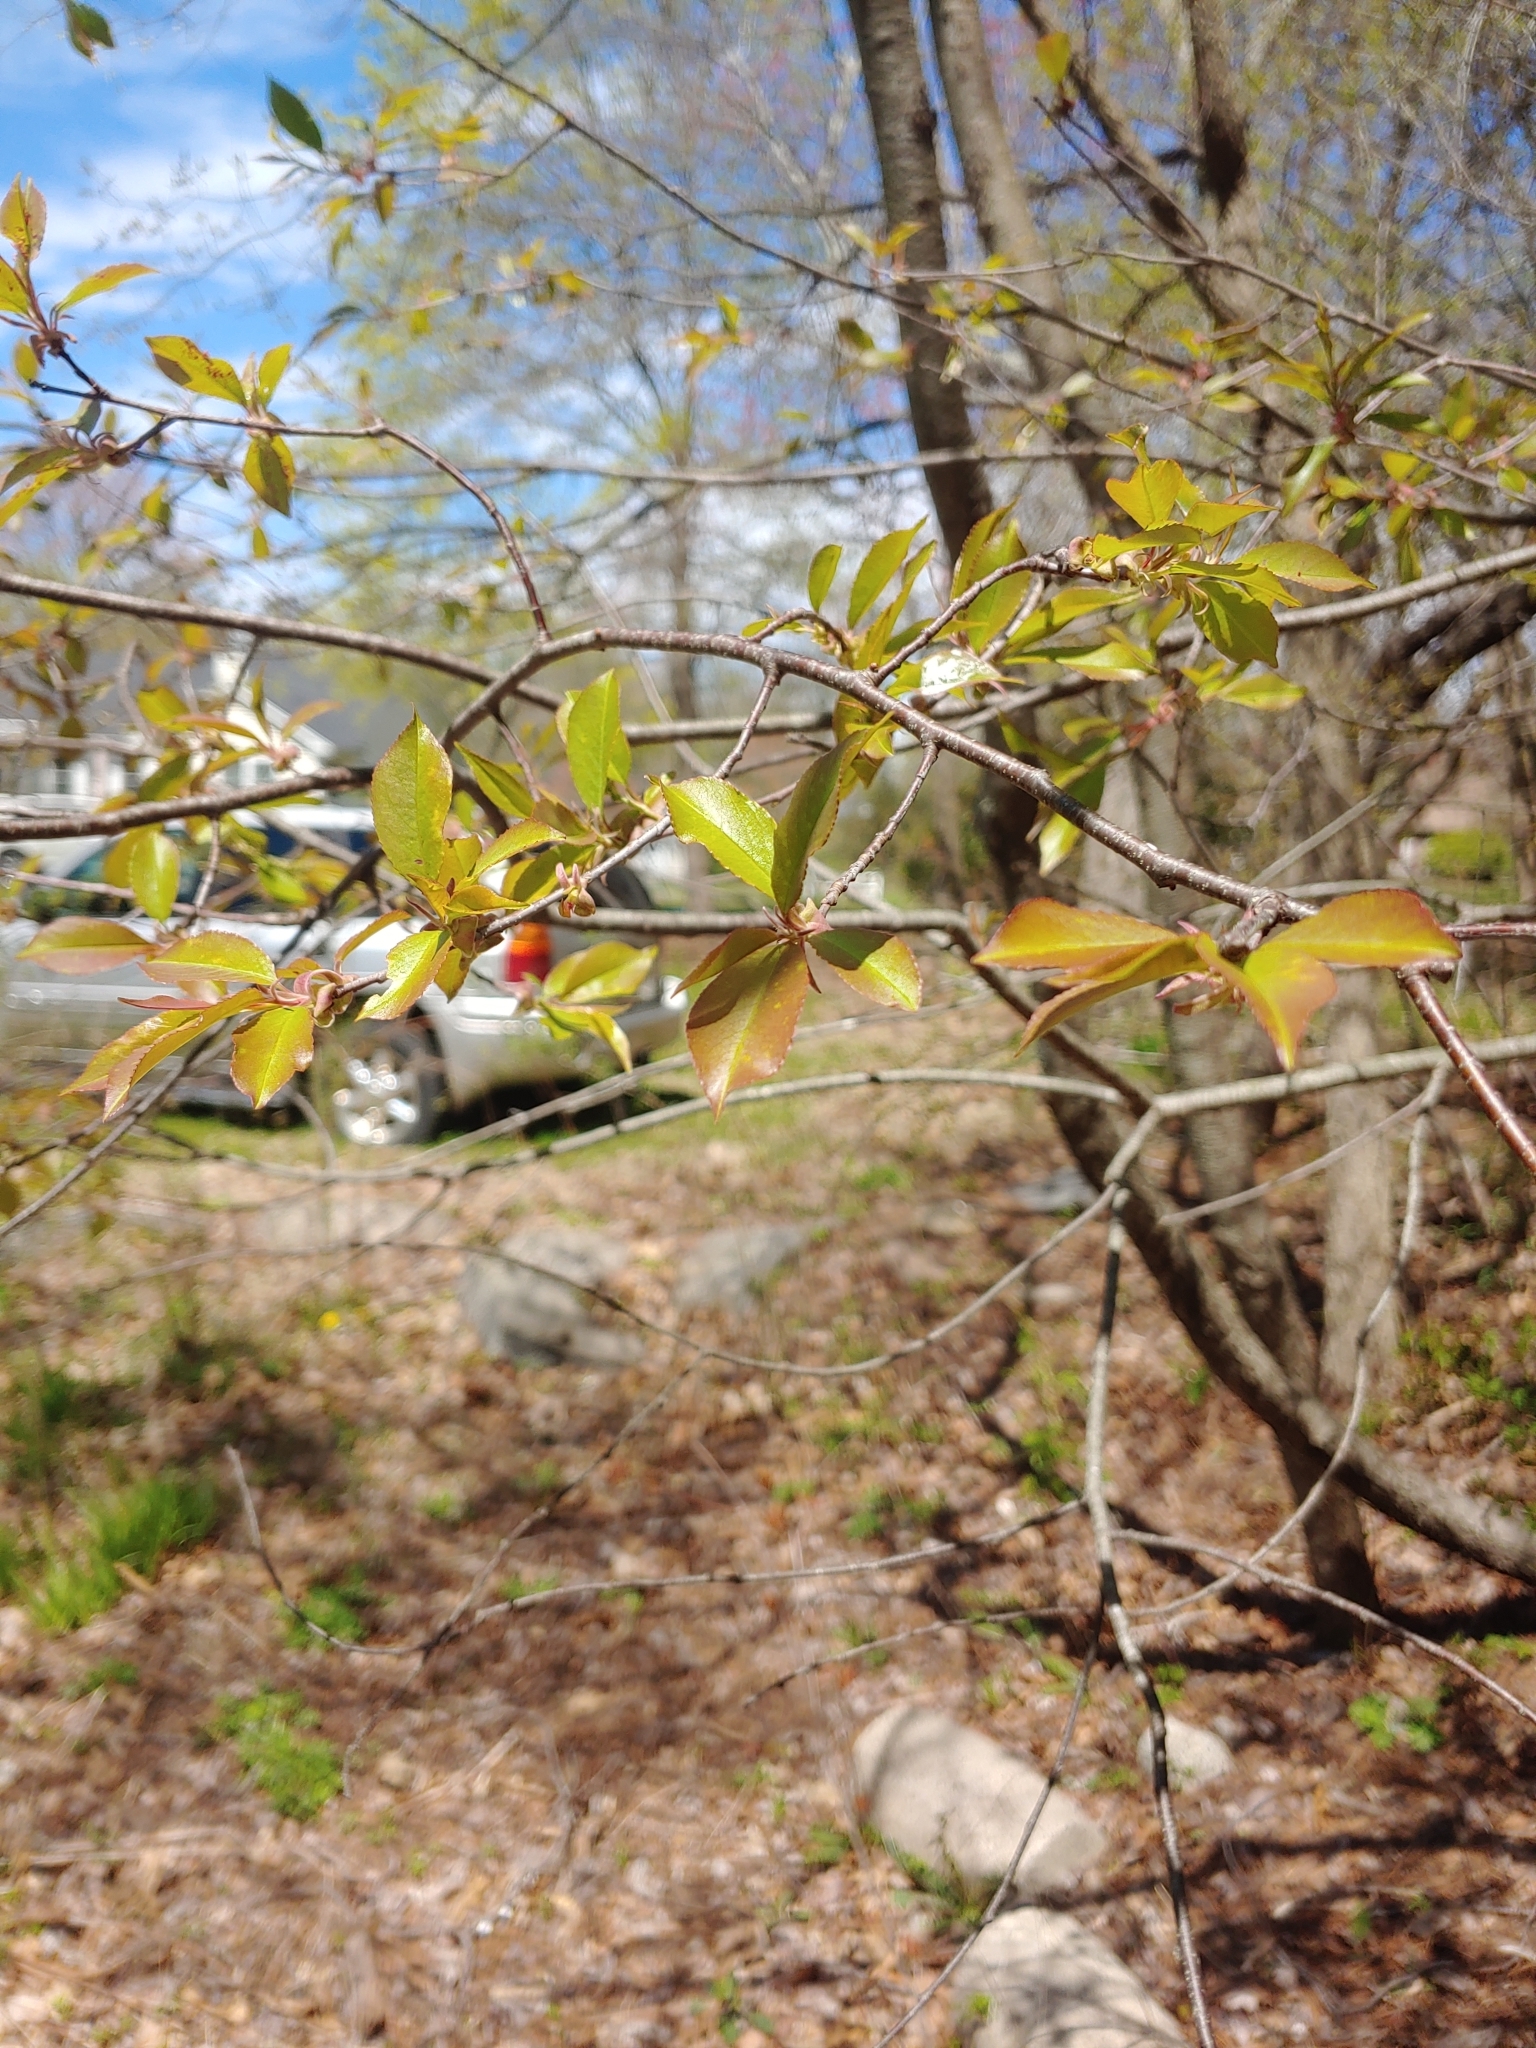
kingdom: Plantae
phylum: Tracheophyta
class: Magnoliopsida
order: Rosales
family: Rosaceae
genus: Prunus
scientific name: Prunus serotina
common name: Black cherry
